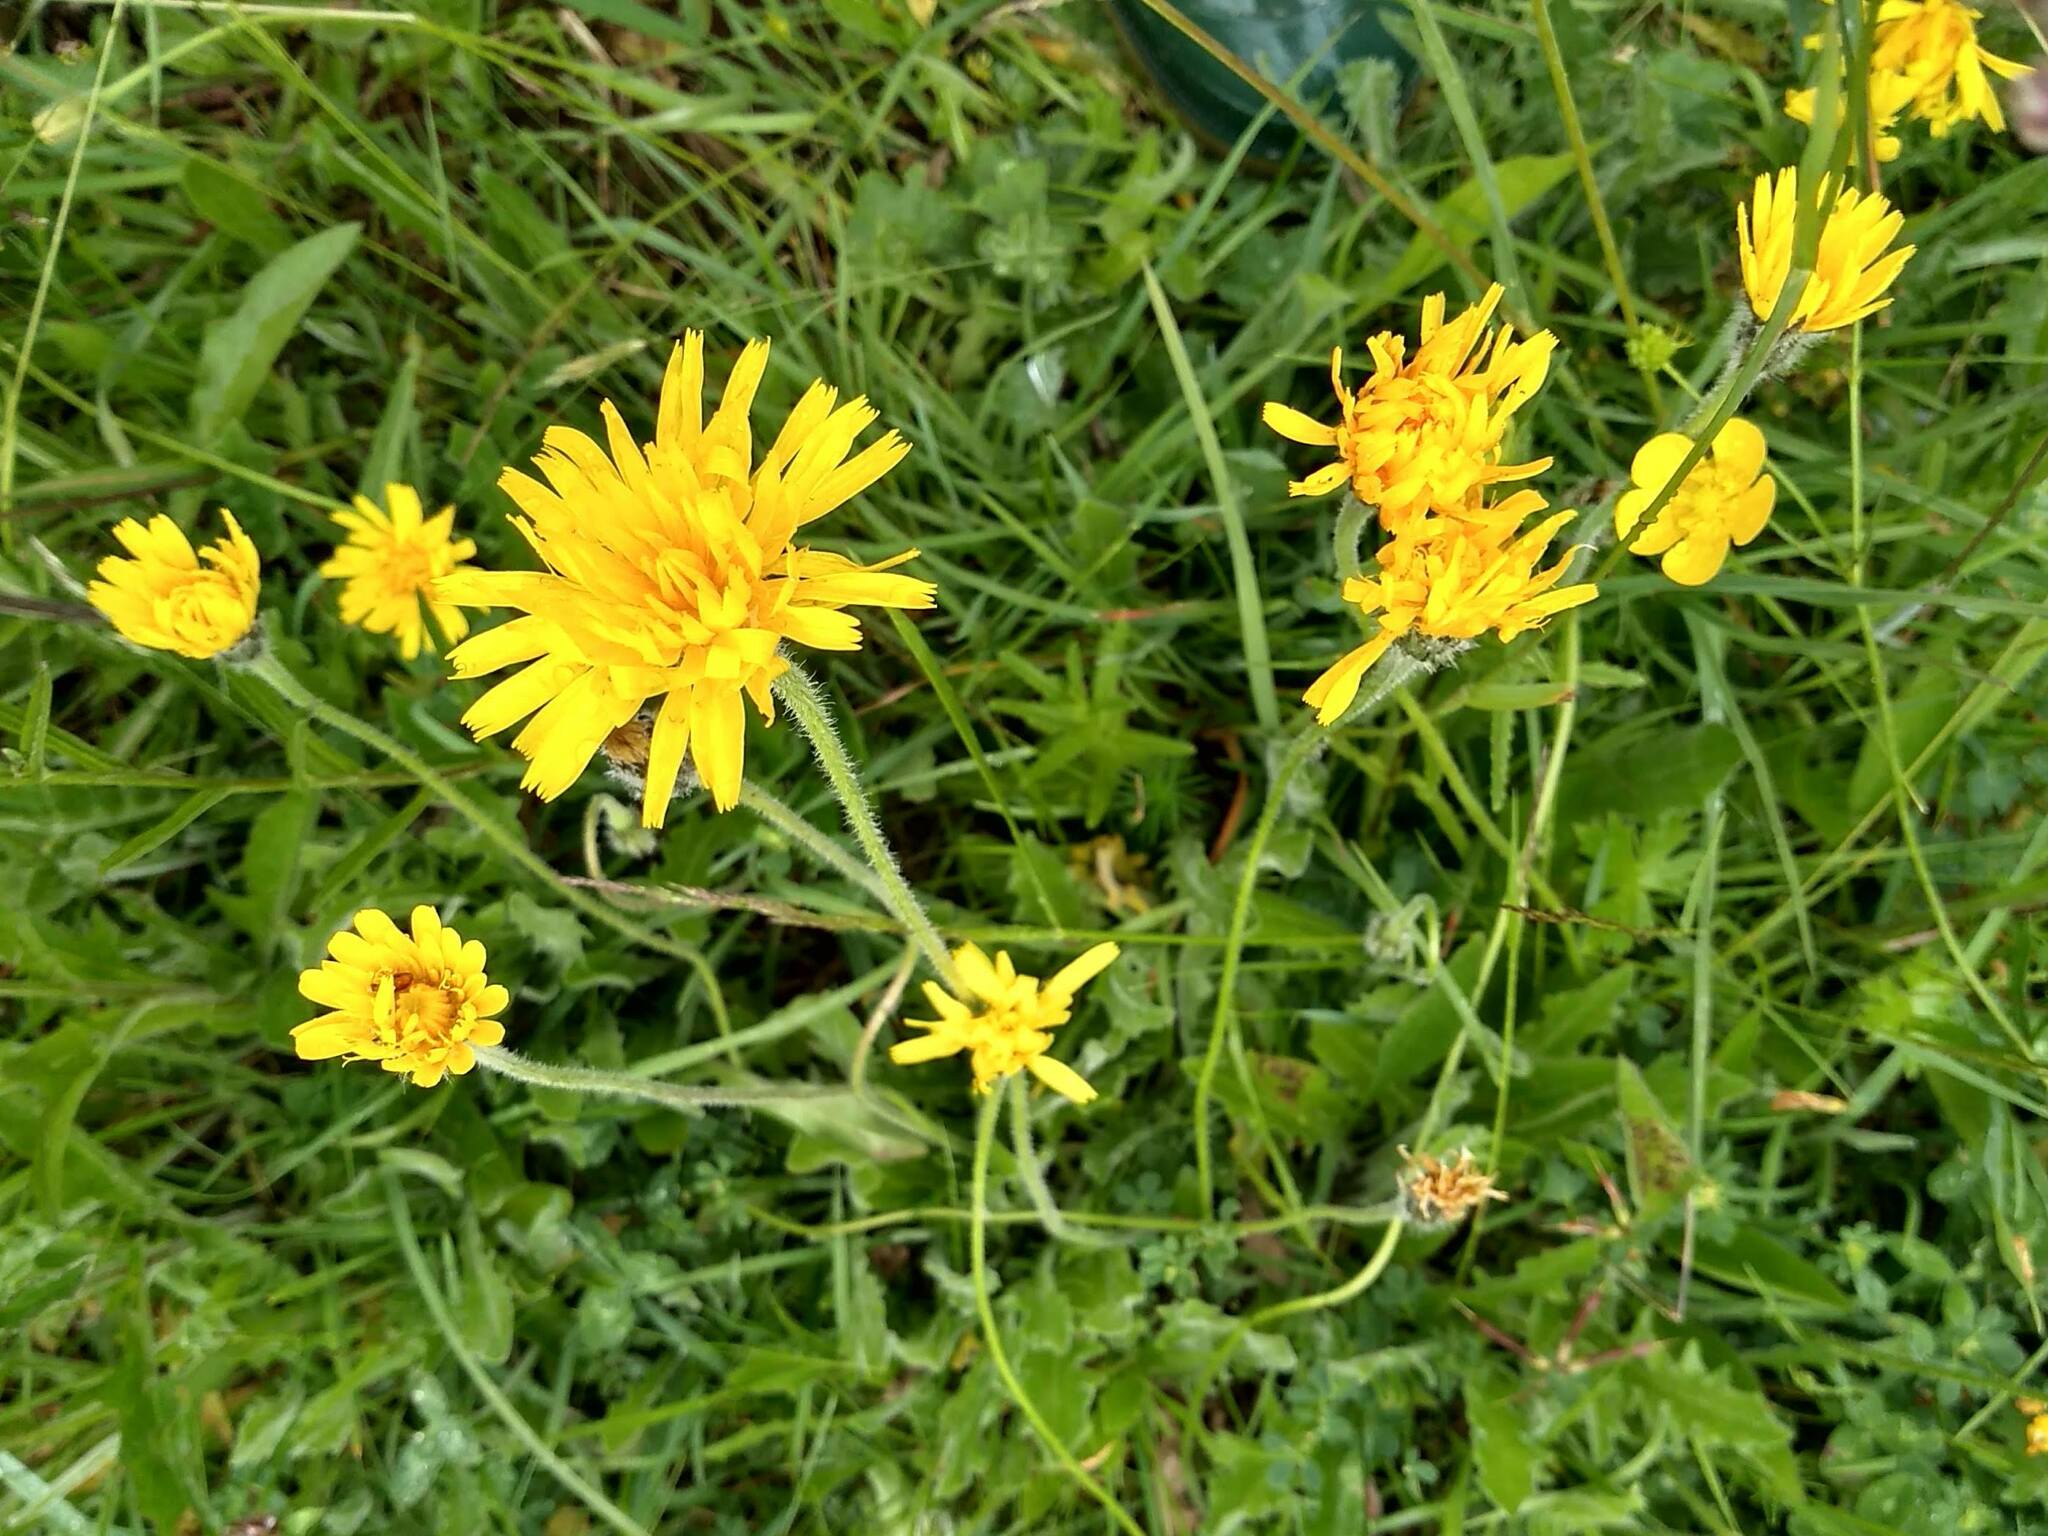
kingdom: Plantae
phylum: Tracheophyta
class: Magnoliopsida
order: Asterales
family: Asteraceae
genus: Leontodon
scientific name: Leontodon hispidus
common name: Rough hawkbit
